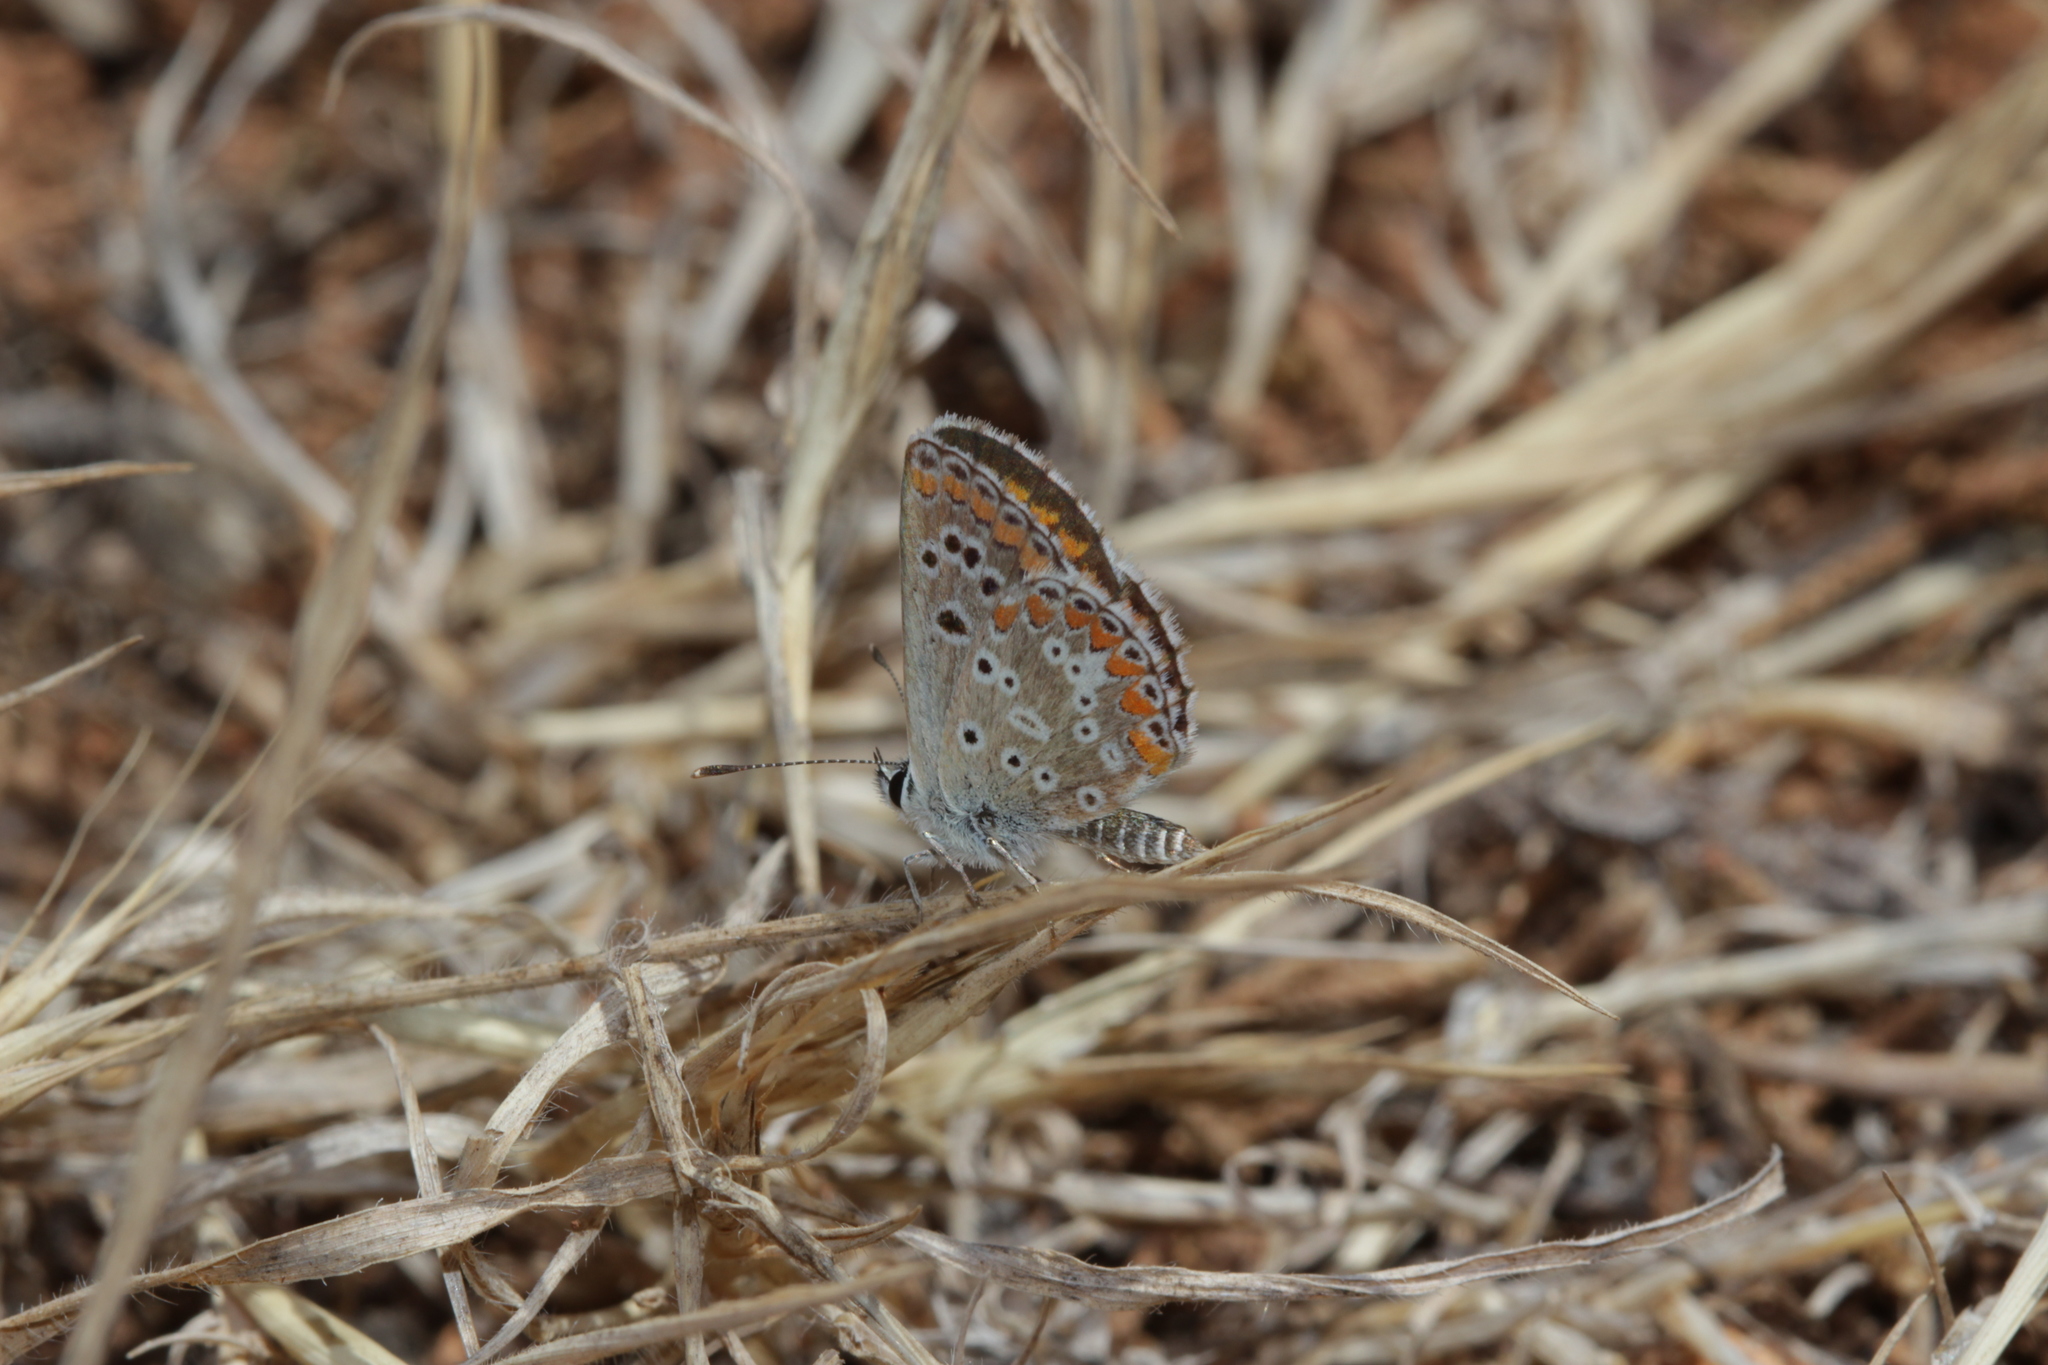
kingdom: Animalia
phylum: Arthropoda
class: Insecta
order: Lepidoptera
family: Lycaenidae
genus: Aricia
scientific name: Aricia cramera
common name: Eschscholtz´s brown  argus
